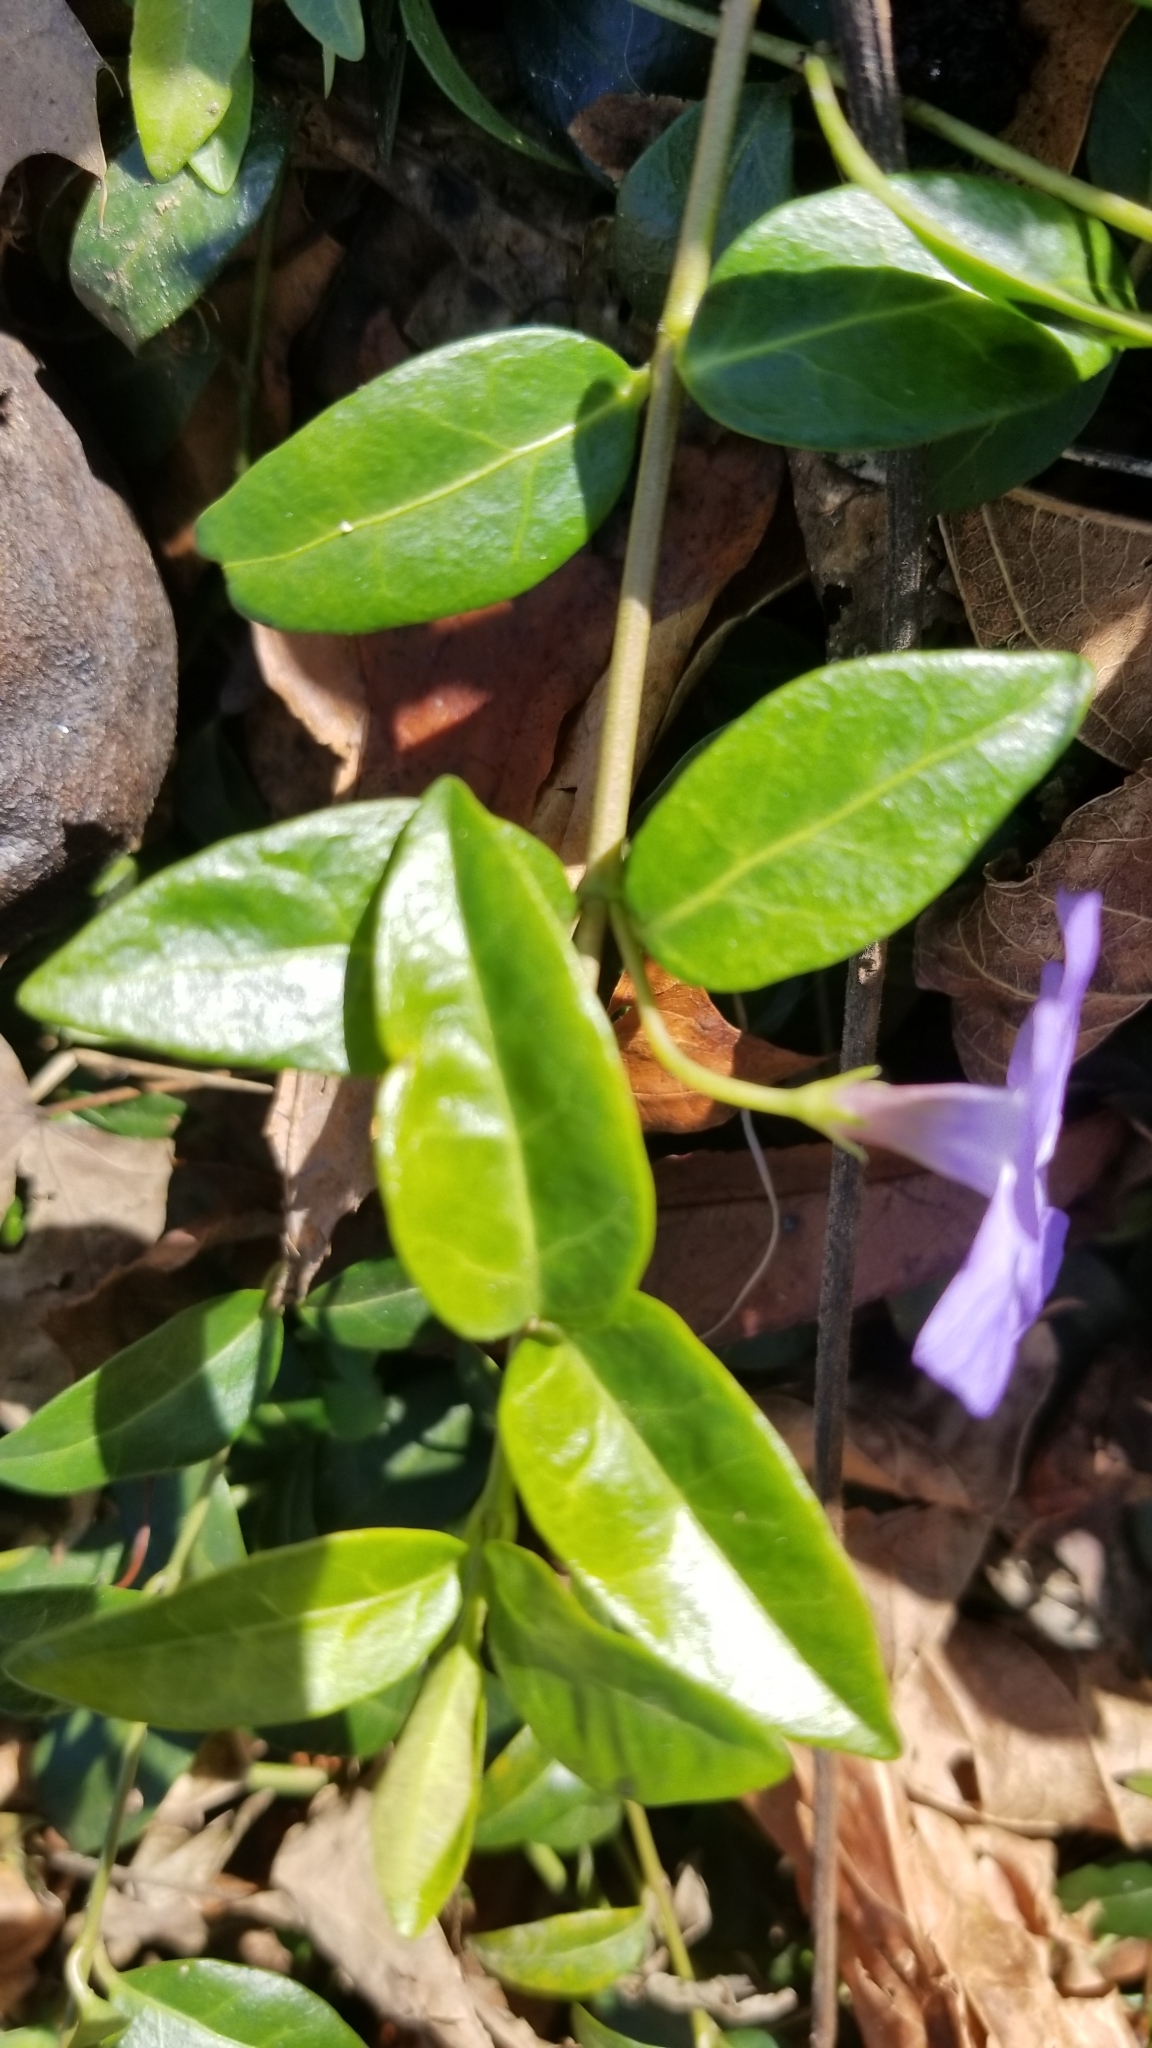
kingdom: Plantae
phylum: Tracheophyta
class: Magnoliopsida
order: Gentianales
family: Apocynaceae
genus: Vinca
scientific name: Vinca minor
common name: Lesser periwinkle
